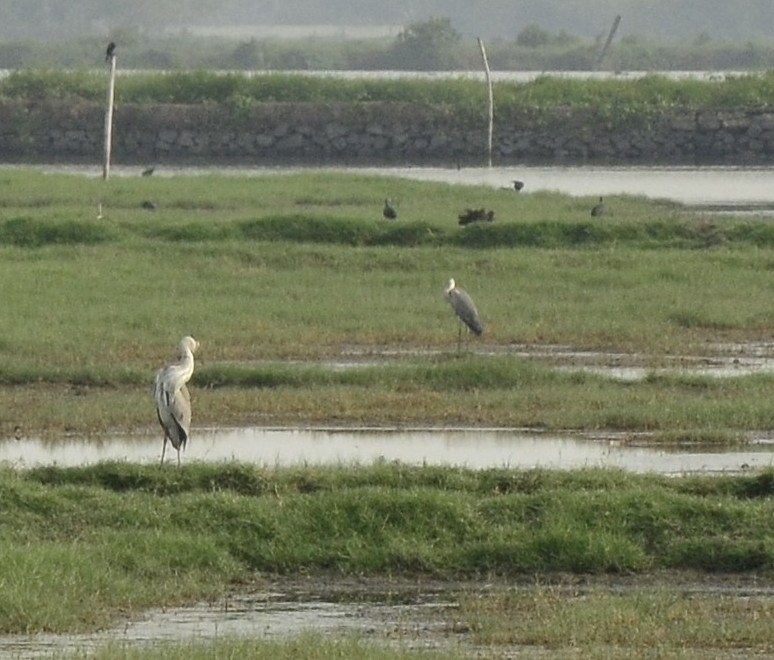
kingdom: Animalia
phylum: Chordata
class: Aves
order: Pelecaniformes
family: Ardeidae
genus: Ardea
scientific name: Ardea cinerea
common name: Grey heron
